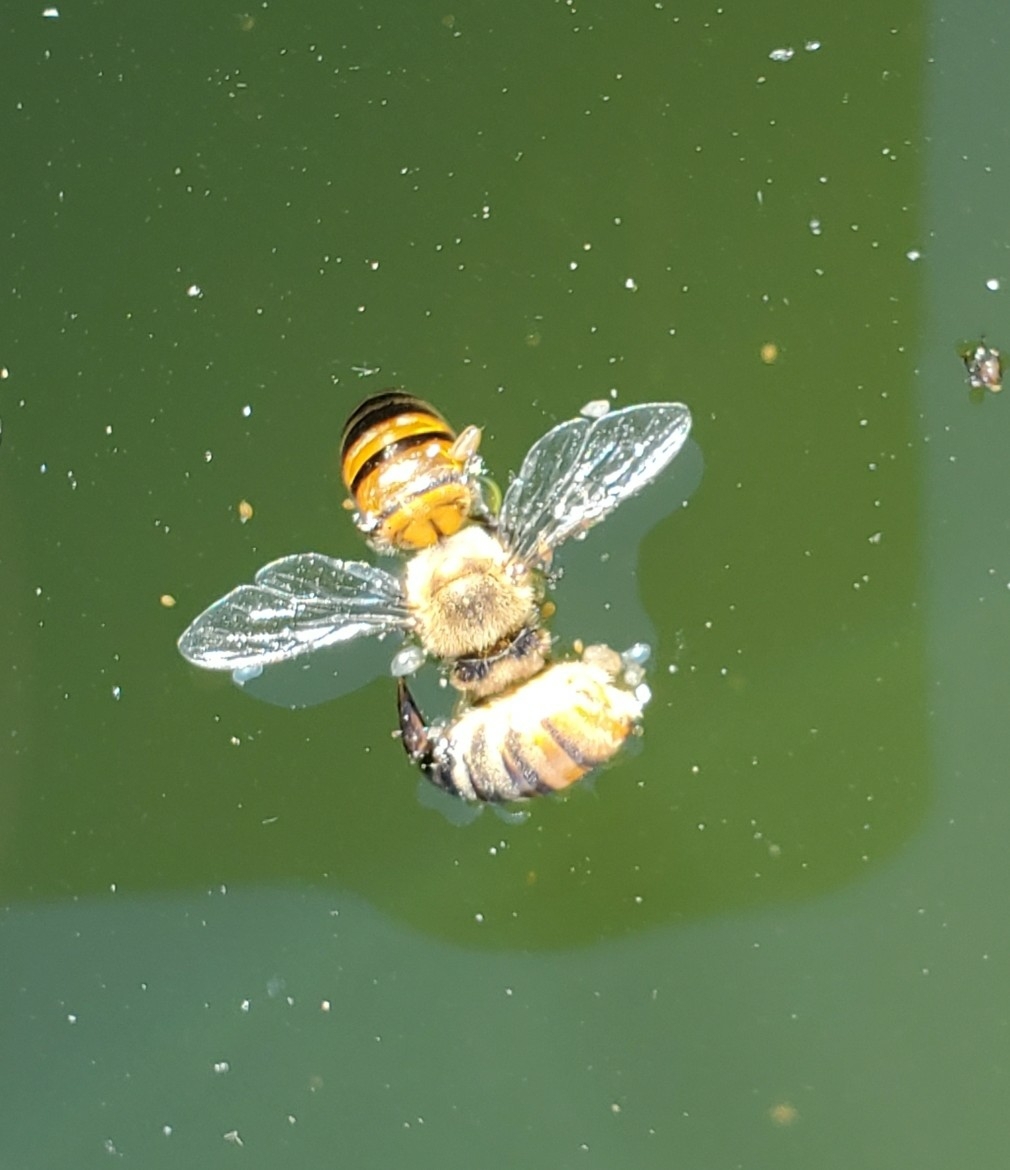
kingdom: Animalia
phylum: Arthropoda
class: Insecta
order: Hymenoptera
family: Apidae
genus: Apis
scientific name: Apis mellifera
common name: Honey bee
